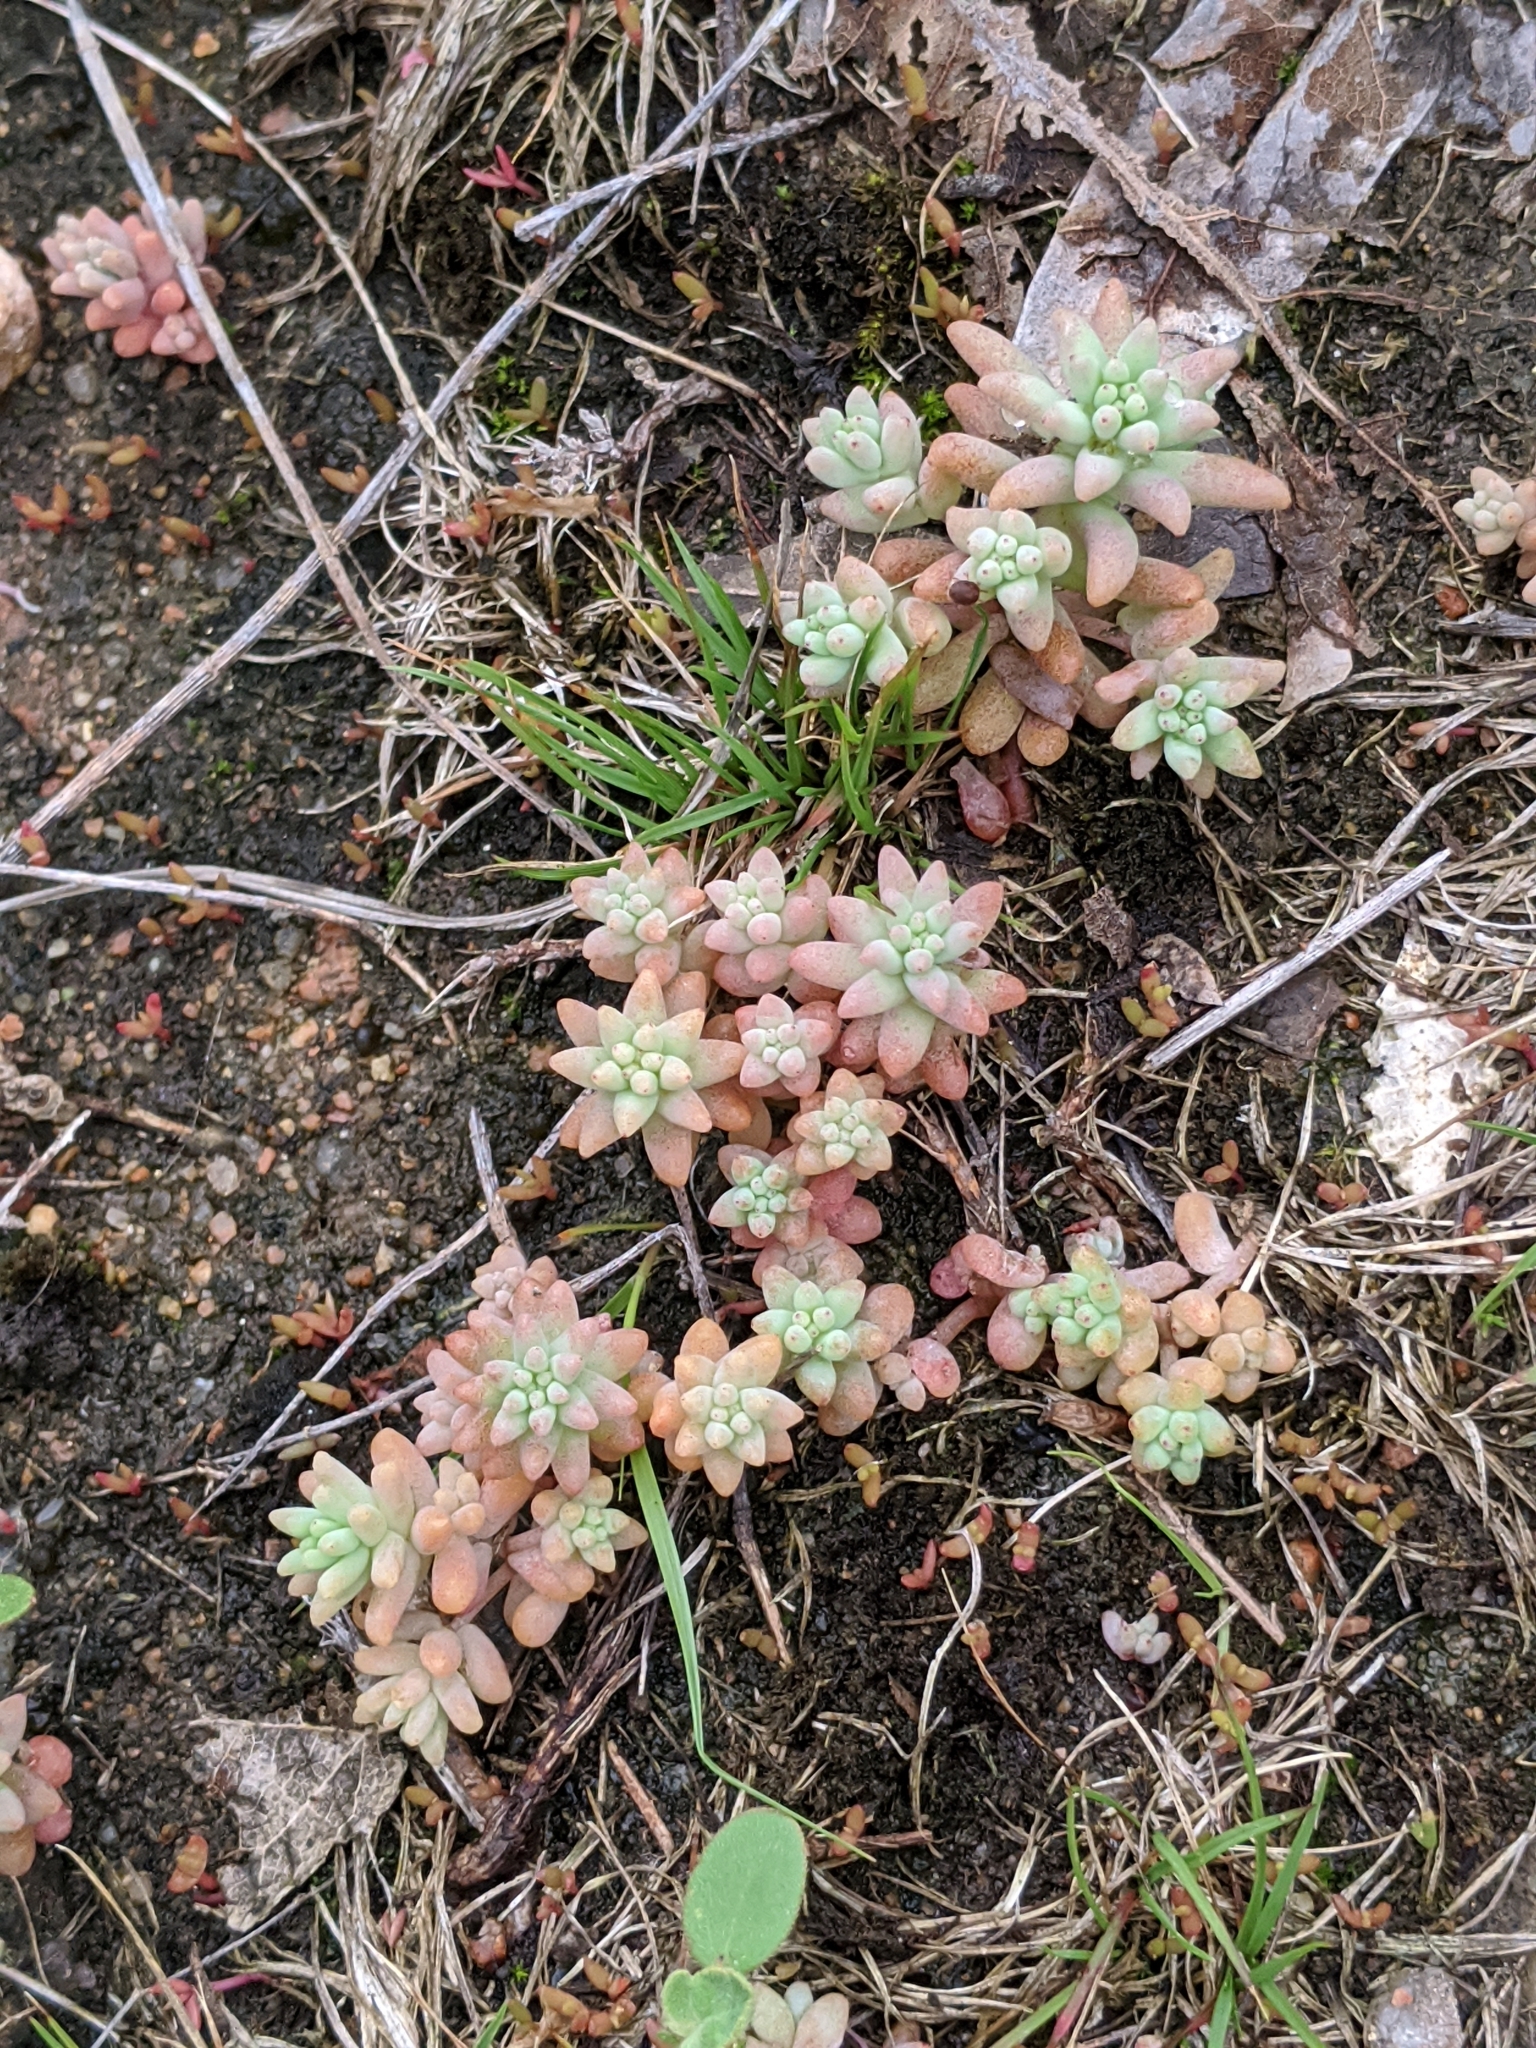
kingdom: Plantae
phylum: Tracheophyta
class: Magnoliopsida
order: Saxifragales
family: Crassulaceae
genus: Sedum
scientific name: Sedum nuttallii
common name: Yellow stonecrop
